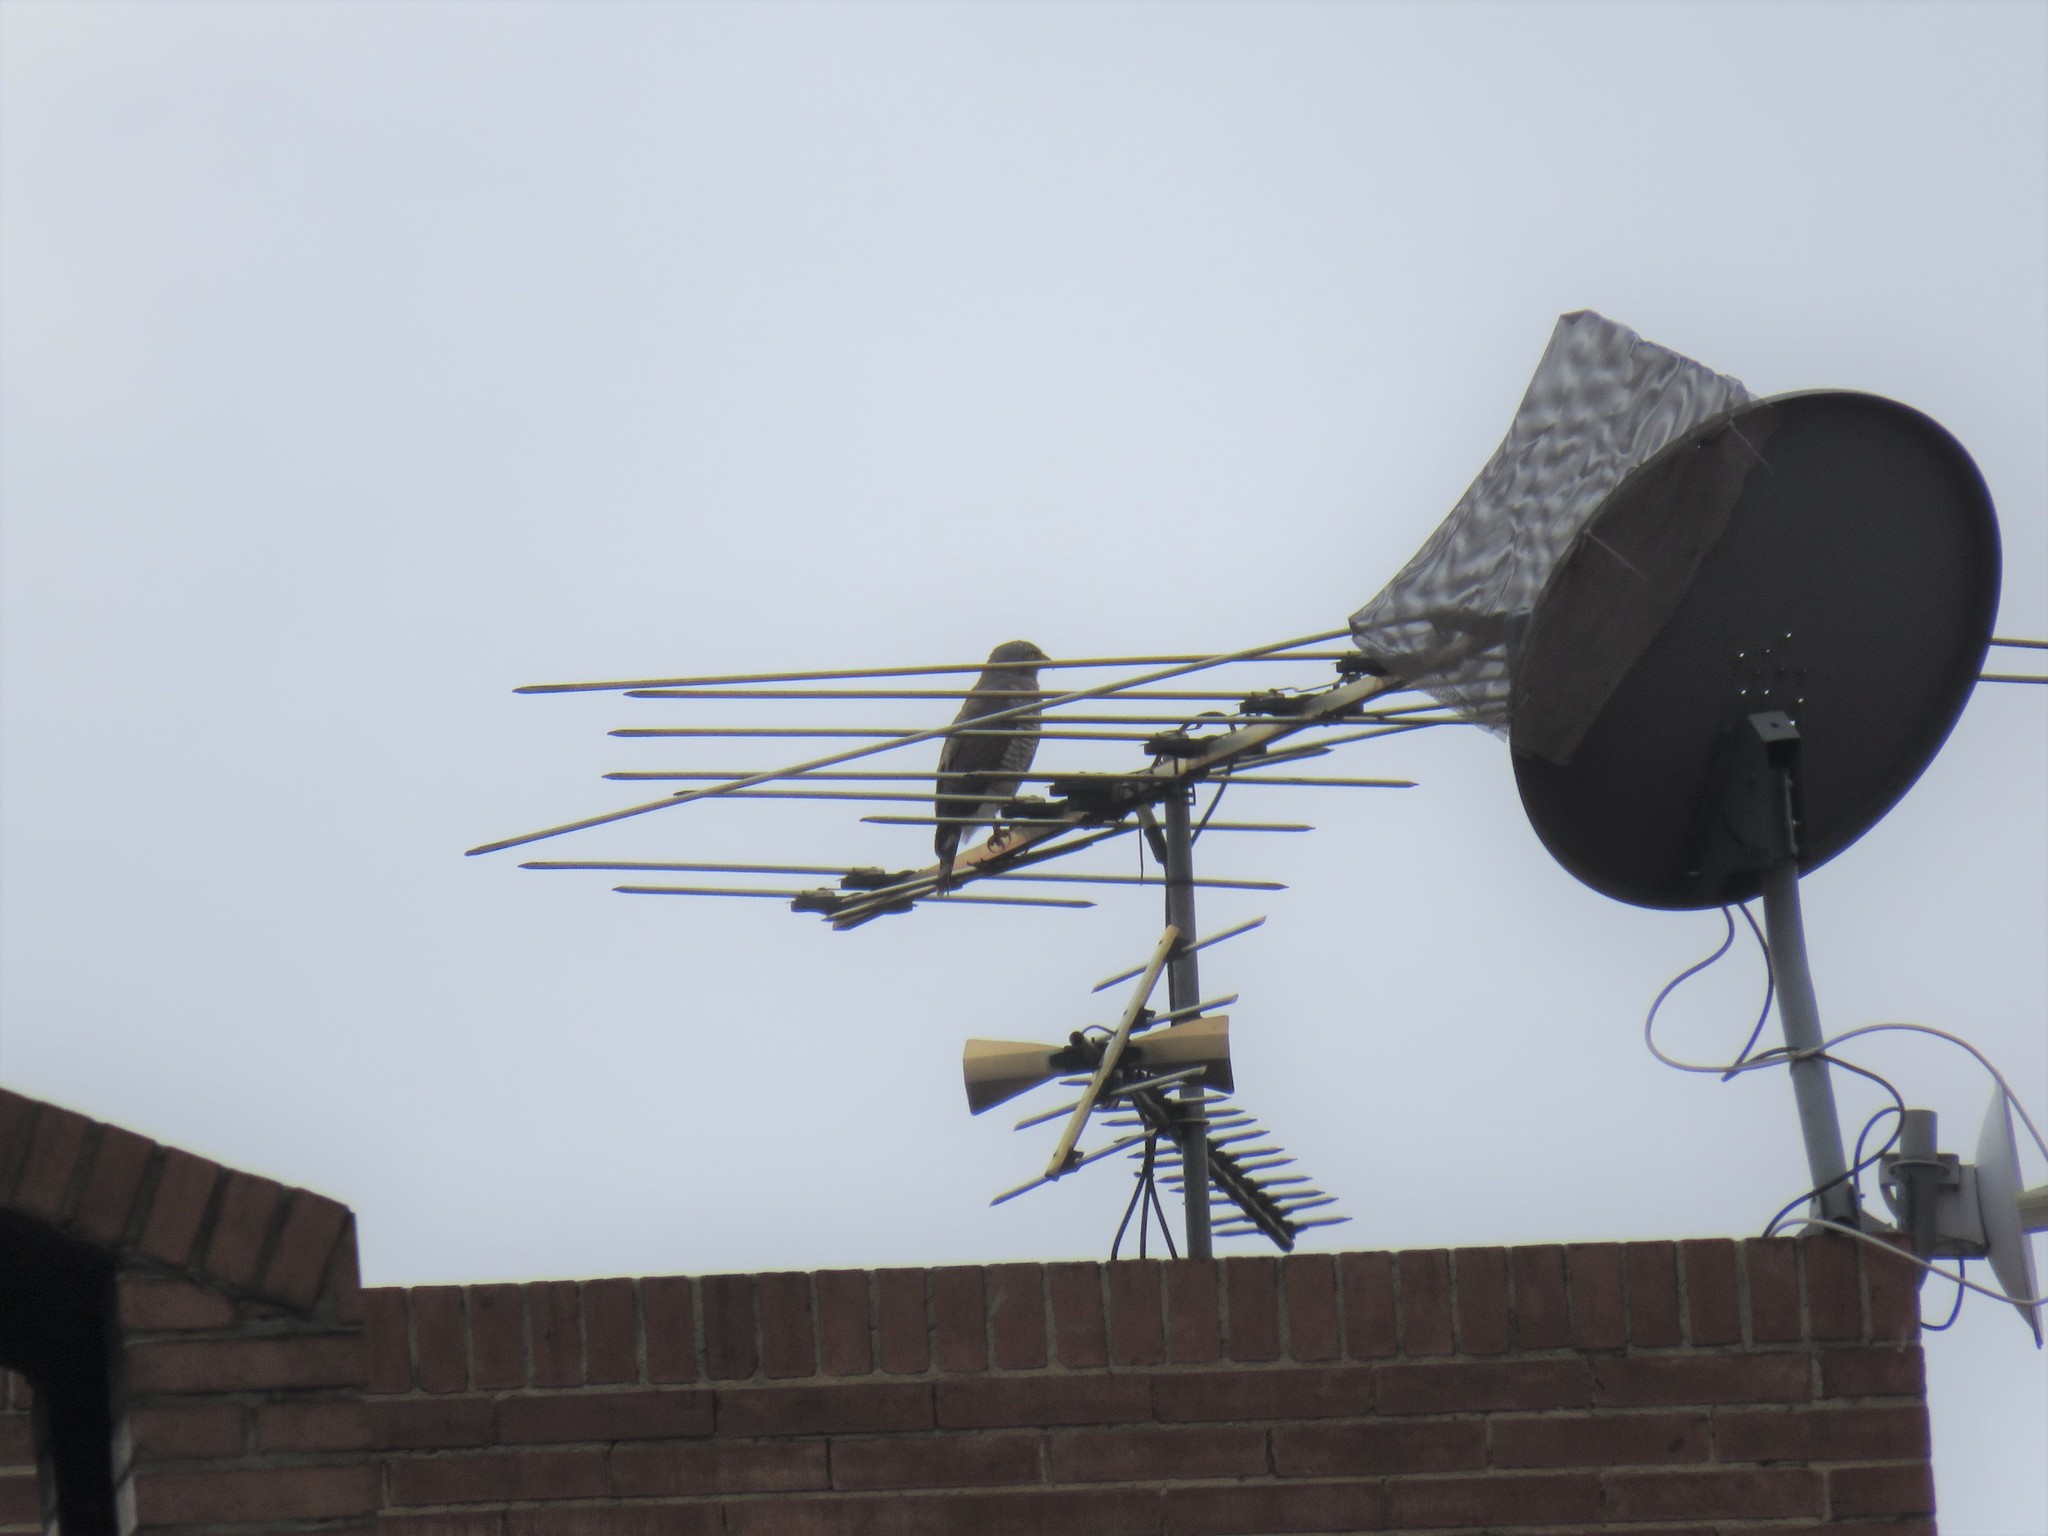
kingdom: Animalia
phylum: Chordata
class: Aves
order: Accipitriformes
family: Accipitridae
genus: Rupornis
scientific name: Rupornis magnirostris
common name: Roadside hawk
